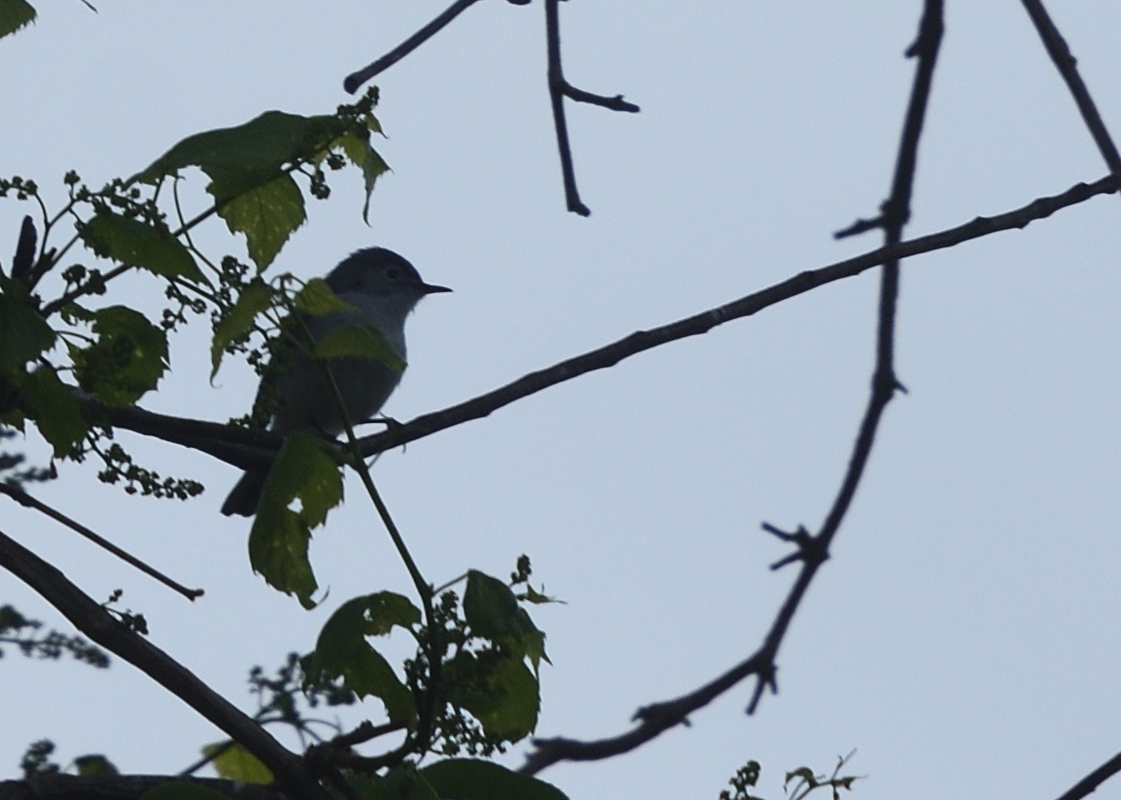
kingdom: Animalia
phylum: Chordata
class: Aves
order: Passeriformes
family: Polioptilidae
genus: Polioptila
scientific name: Polioptila caerulea
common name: Blue-gray gnatcatcher
